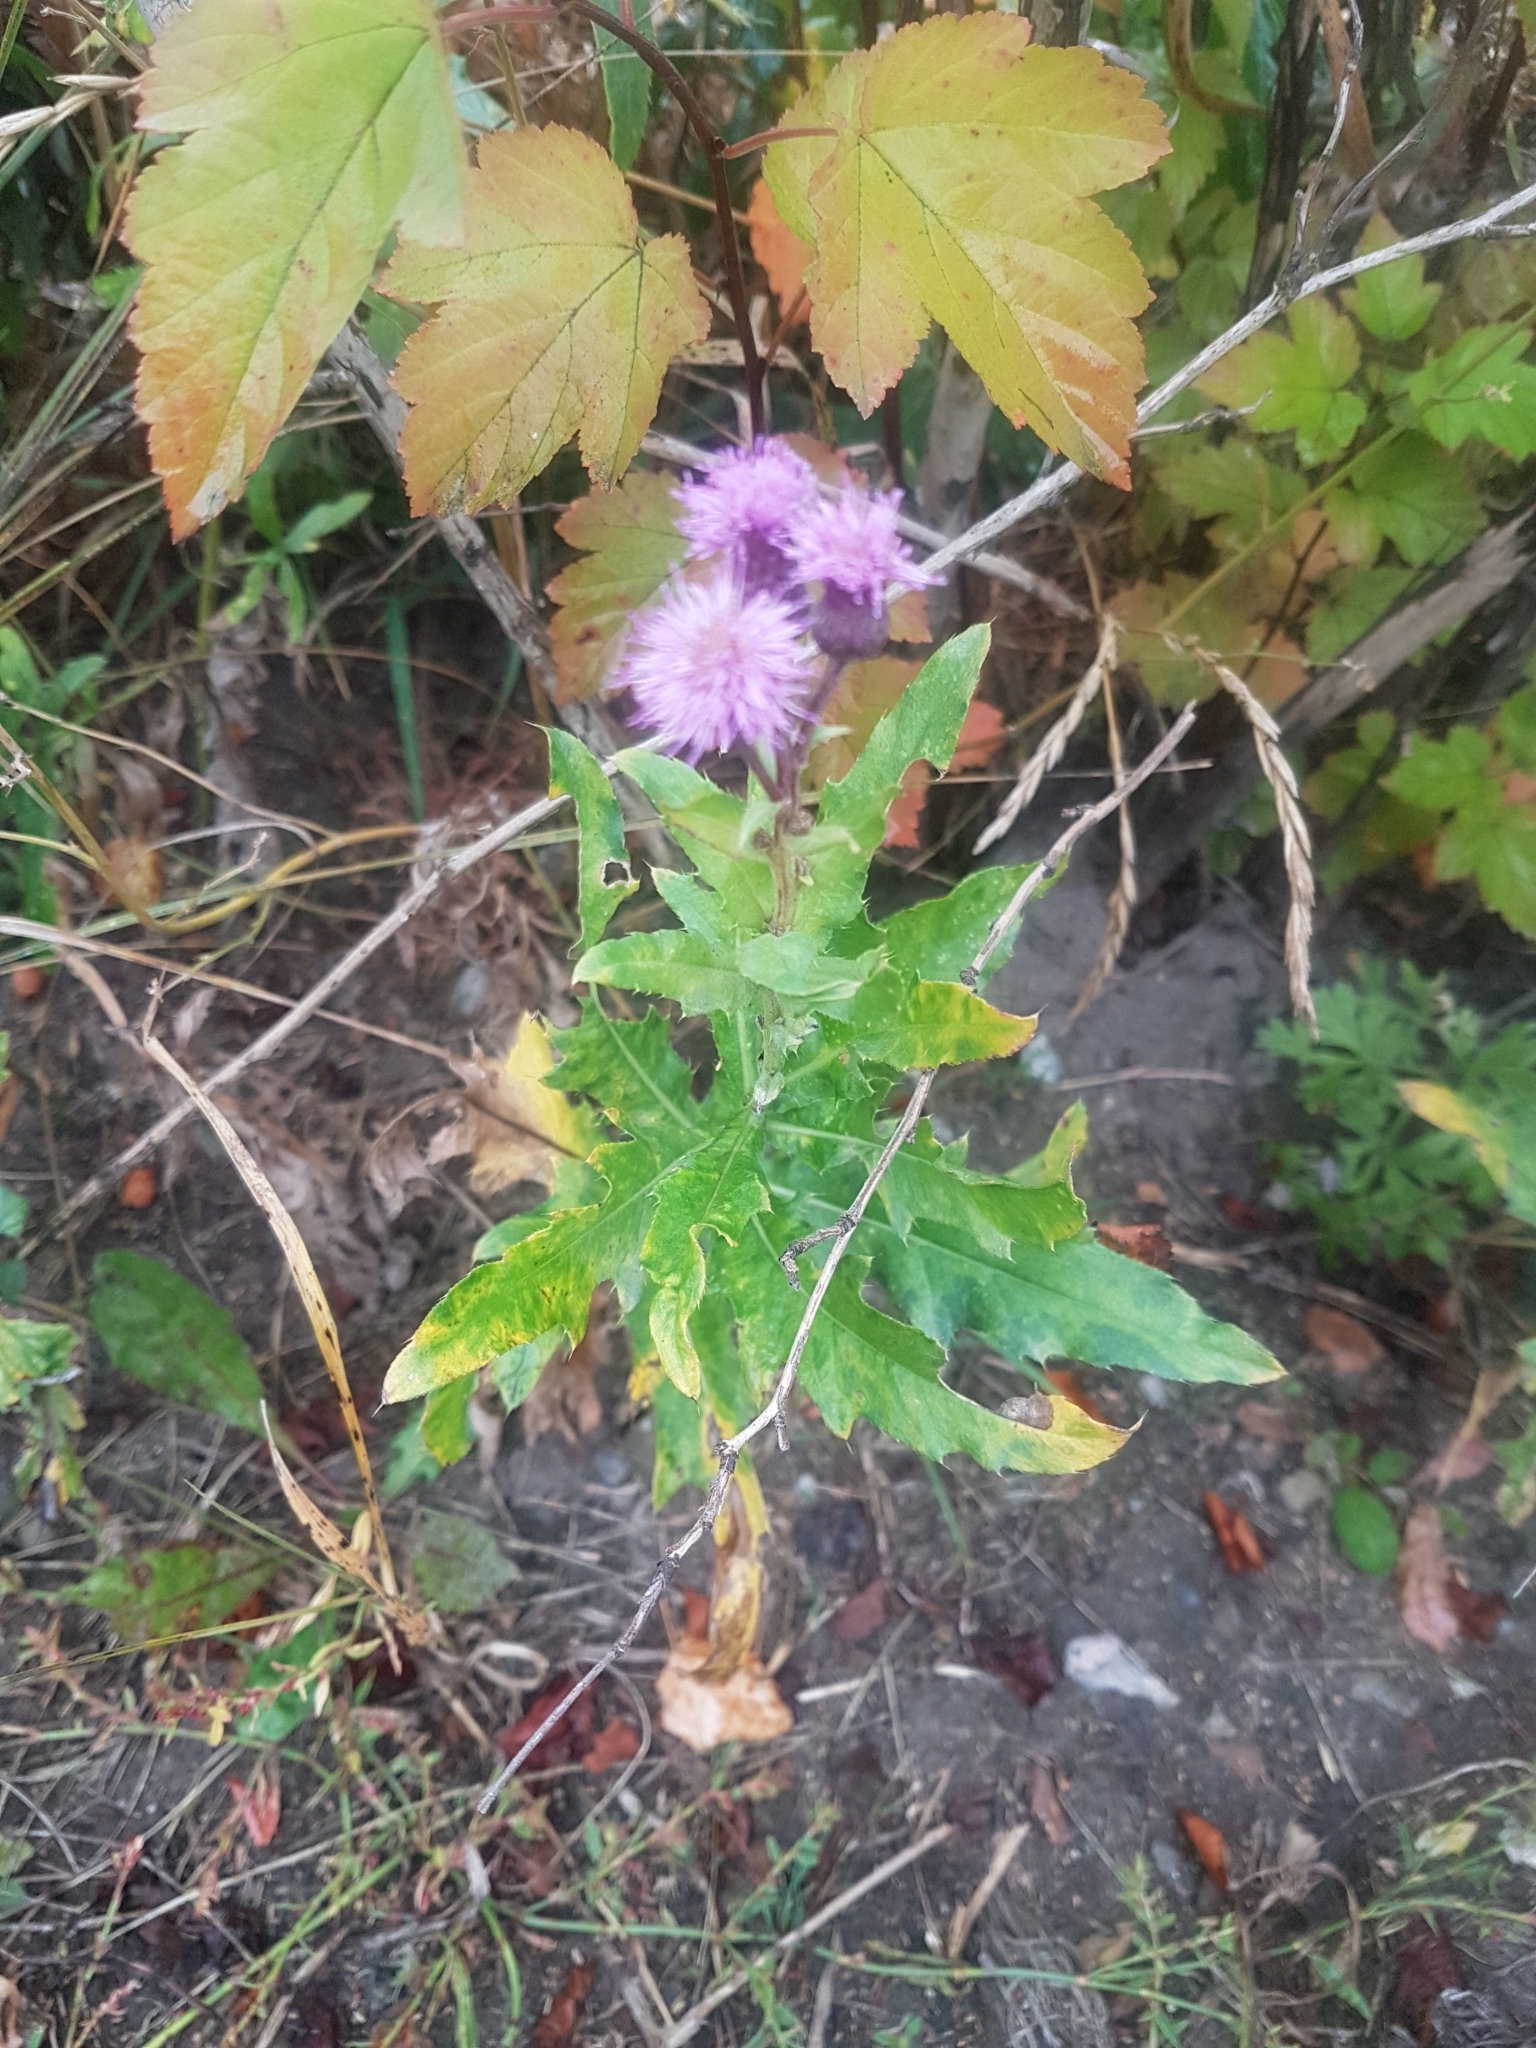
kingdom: Plantae
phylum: Tracheophyta
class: Magnoliopsida
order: Asterales
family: Asteraceae
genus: Cirsium
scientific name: Cirsium arvense
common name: Creeping thistle
